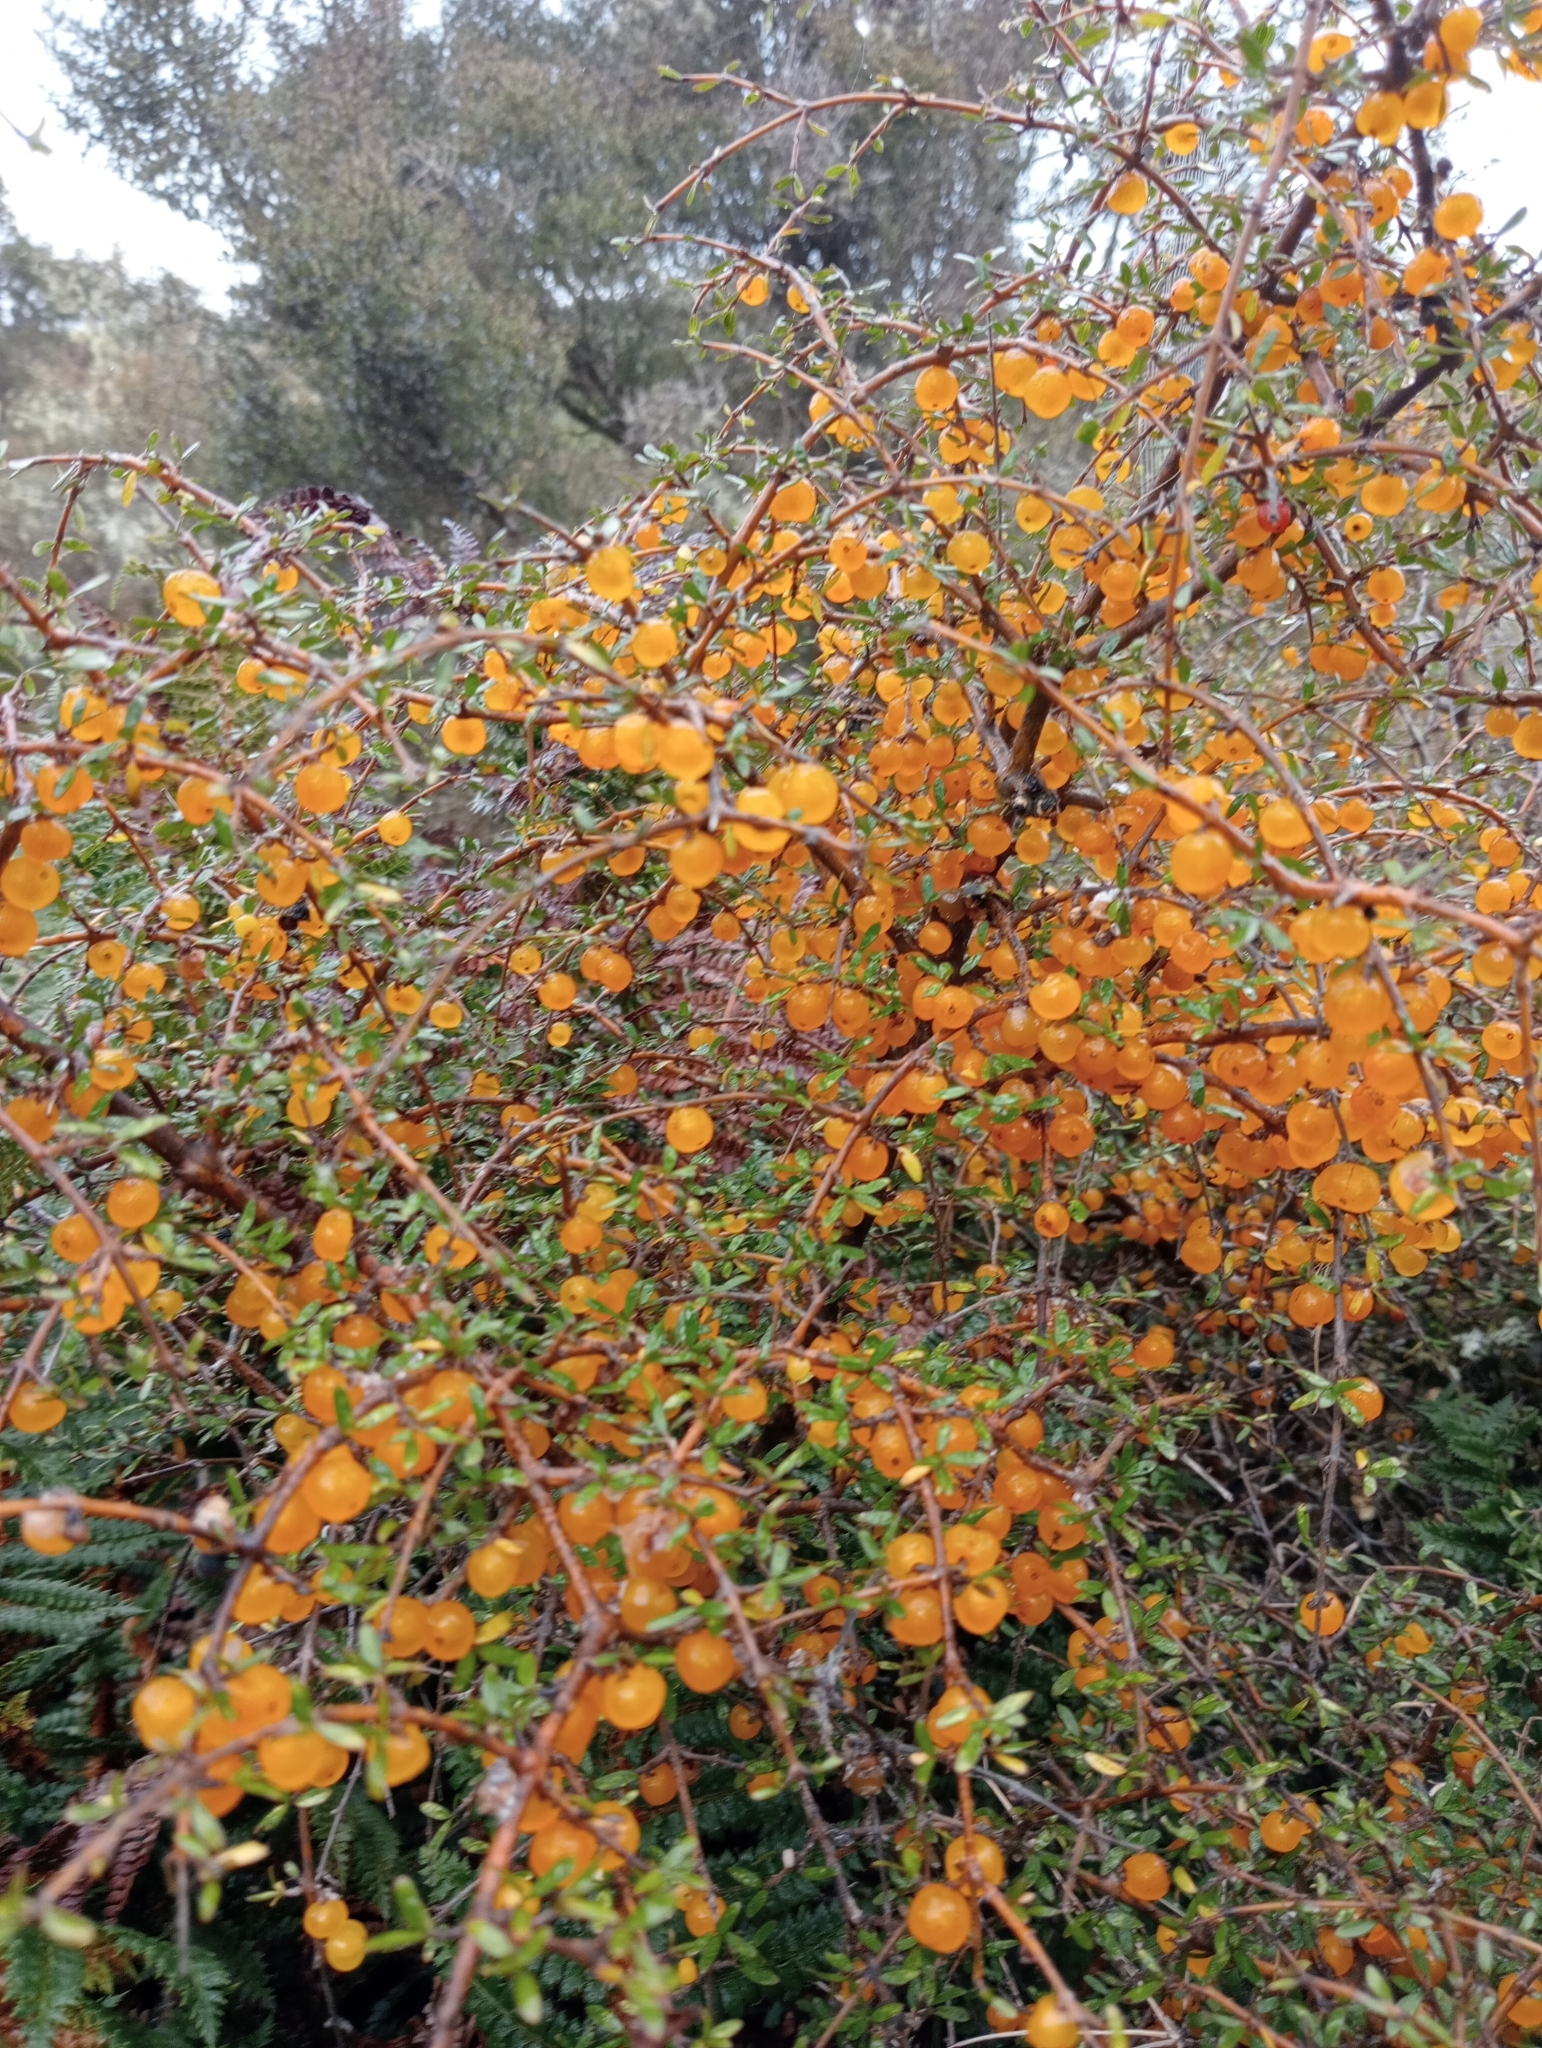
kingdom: Plantae
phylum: Tracheophyta
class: Magnoliopsida
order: Gentianales
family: Rubiaceae
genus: Coprosma
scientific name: Coprosma rigida
